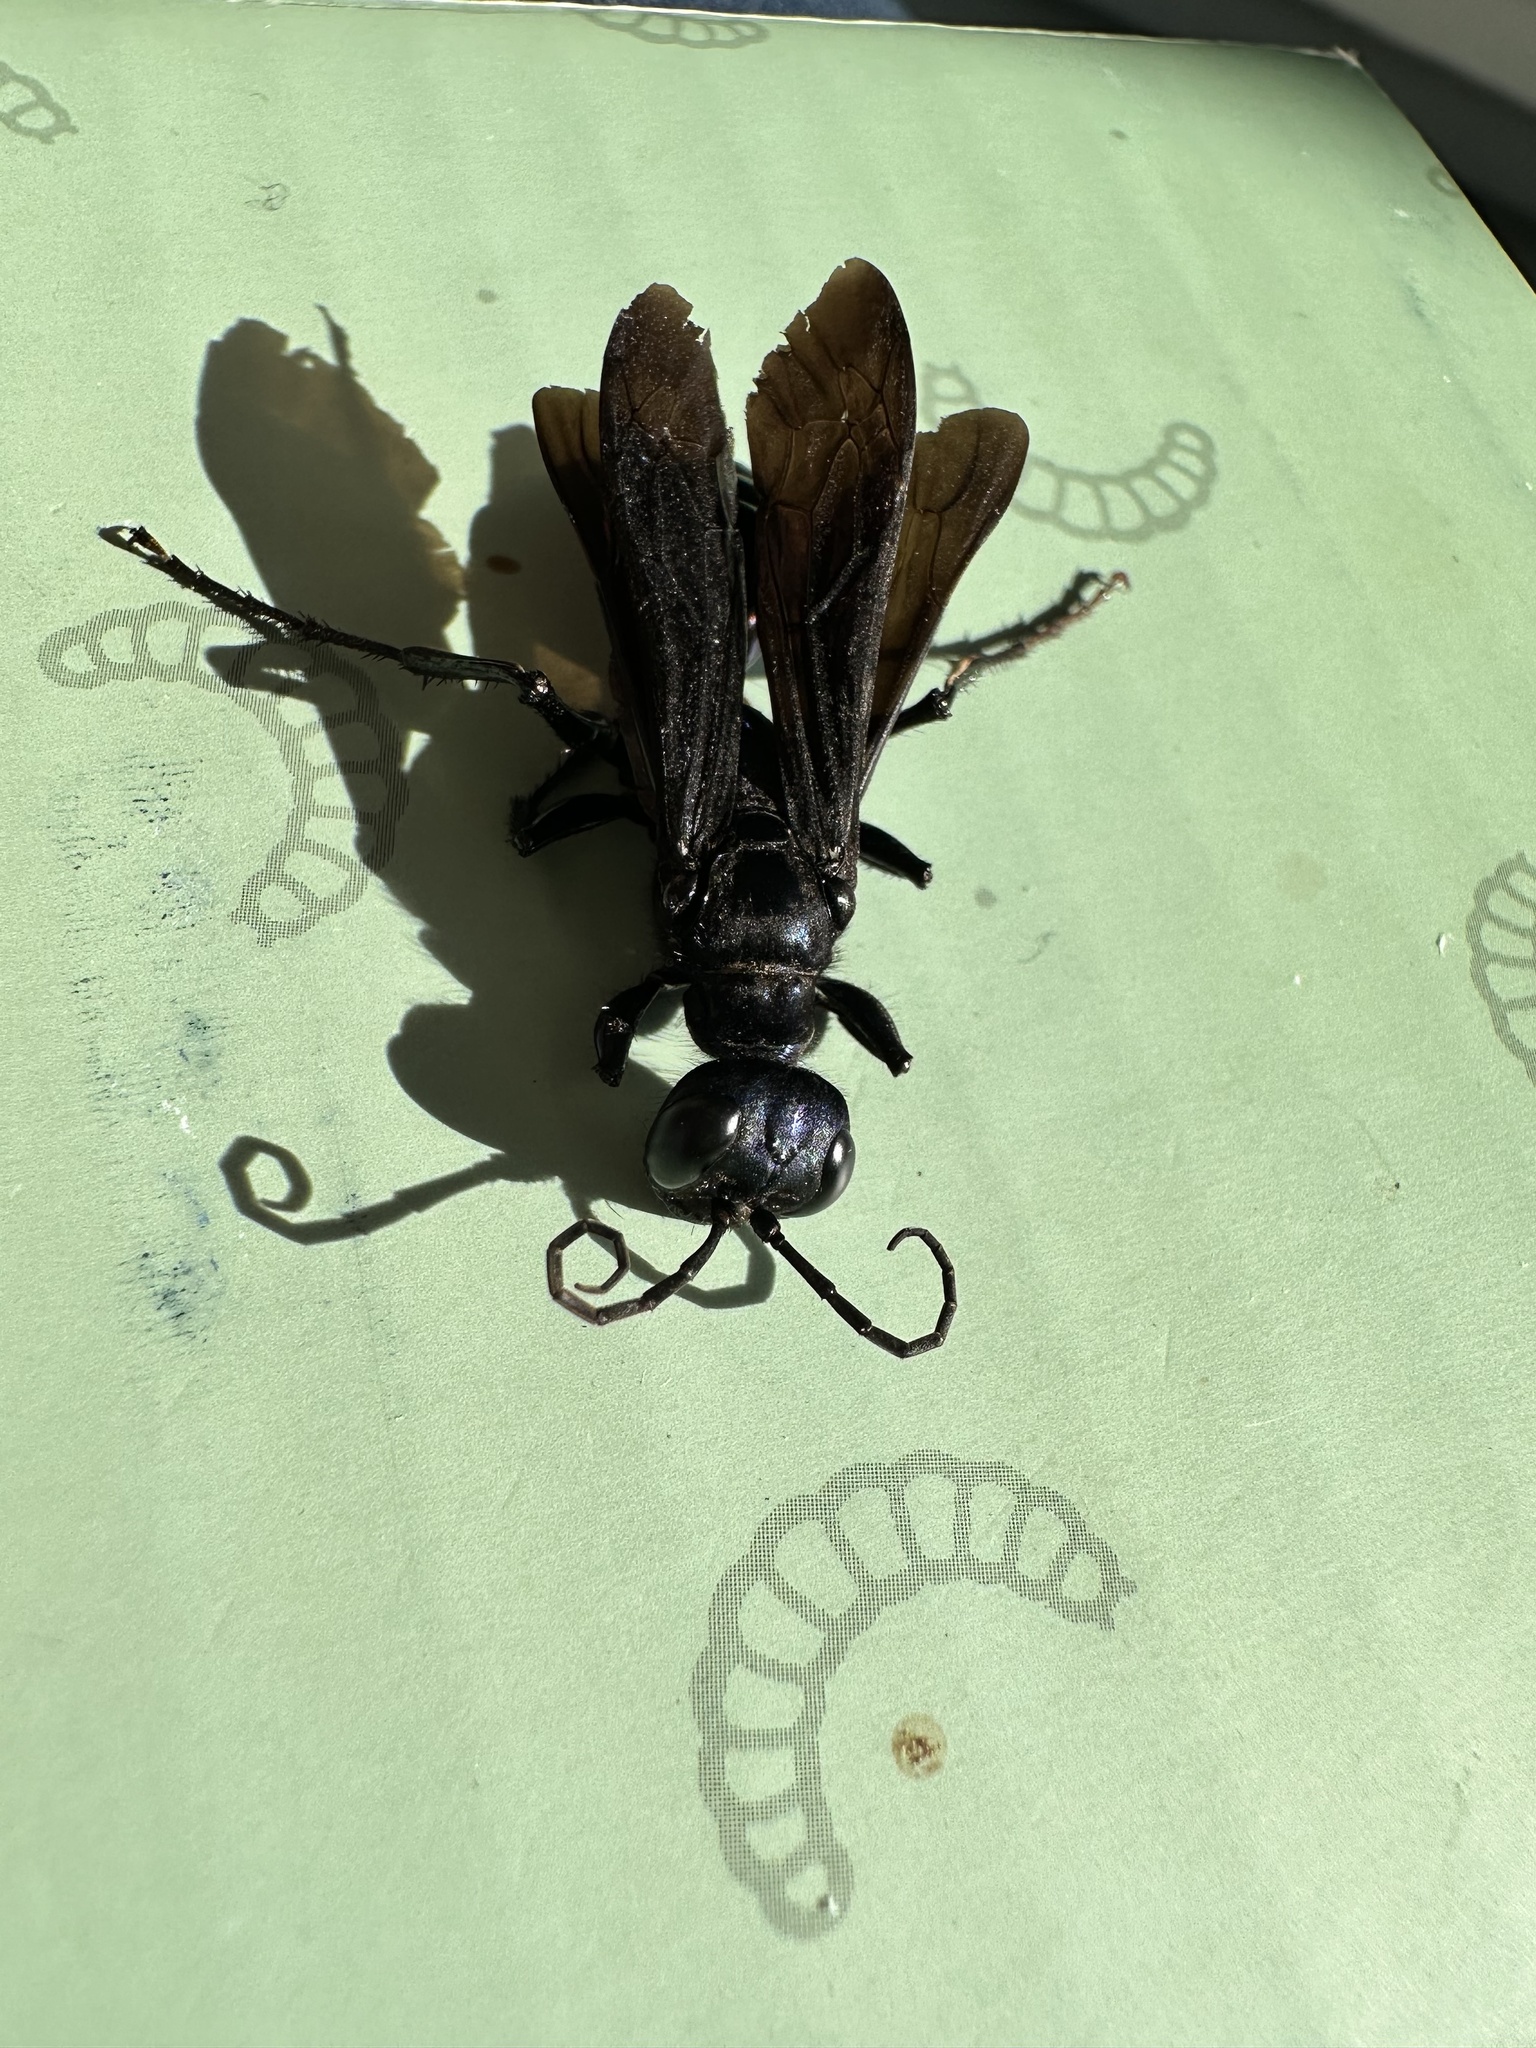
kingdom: Animalia
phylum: Arthropoda
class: Insecta
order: Hymenoptera
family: Sphecidae
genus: Chlorion
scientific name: Chlorion aerarium
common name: Steel-blue cricket hunter
